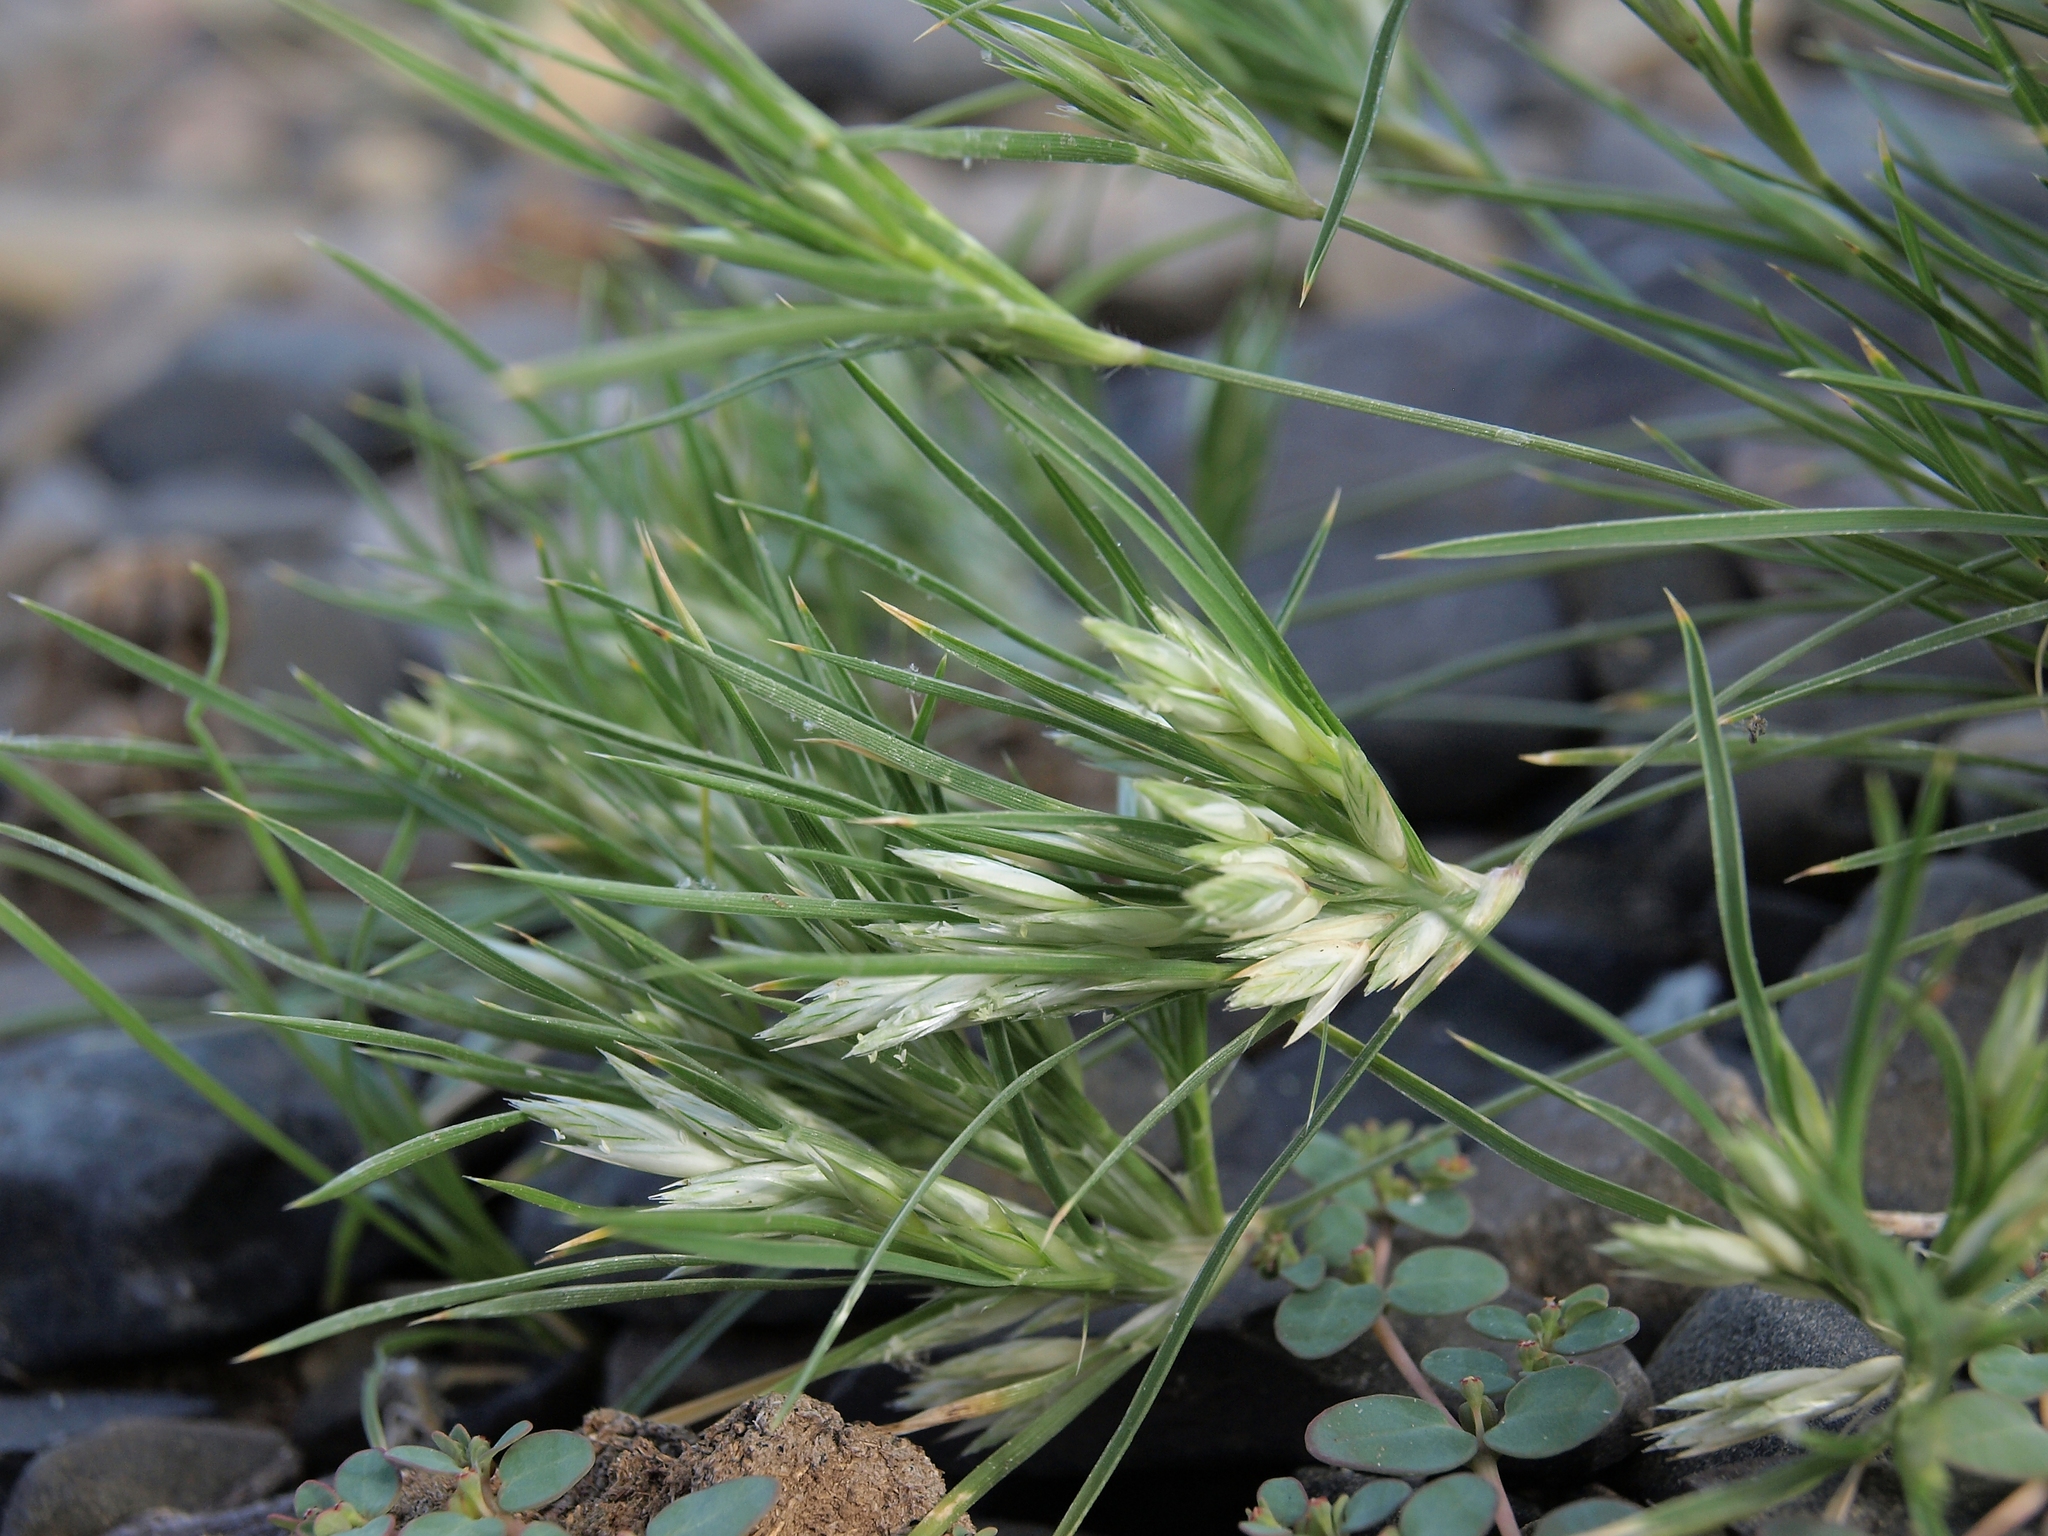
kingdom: Plantae
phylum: Tracheophyta
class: Liliopsida
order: Poales
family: Poaceae
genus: Dasyochloa
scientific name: Dasyochloa pulchella
